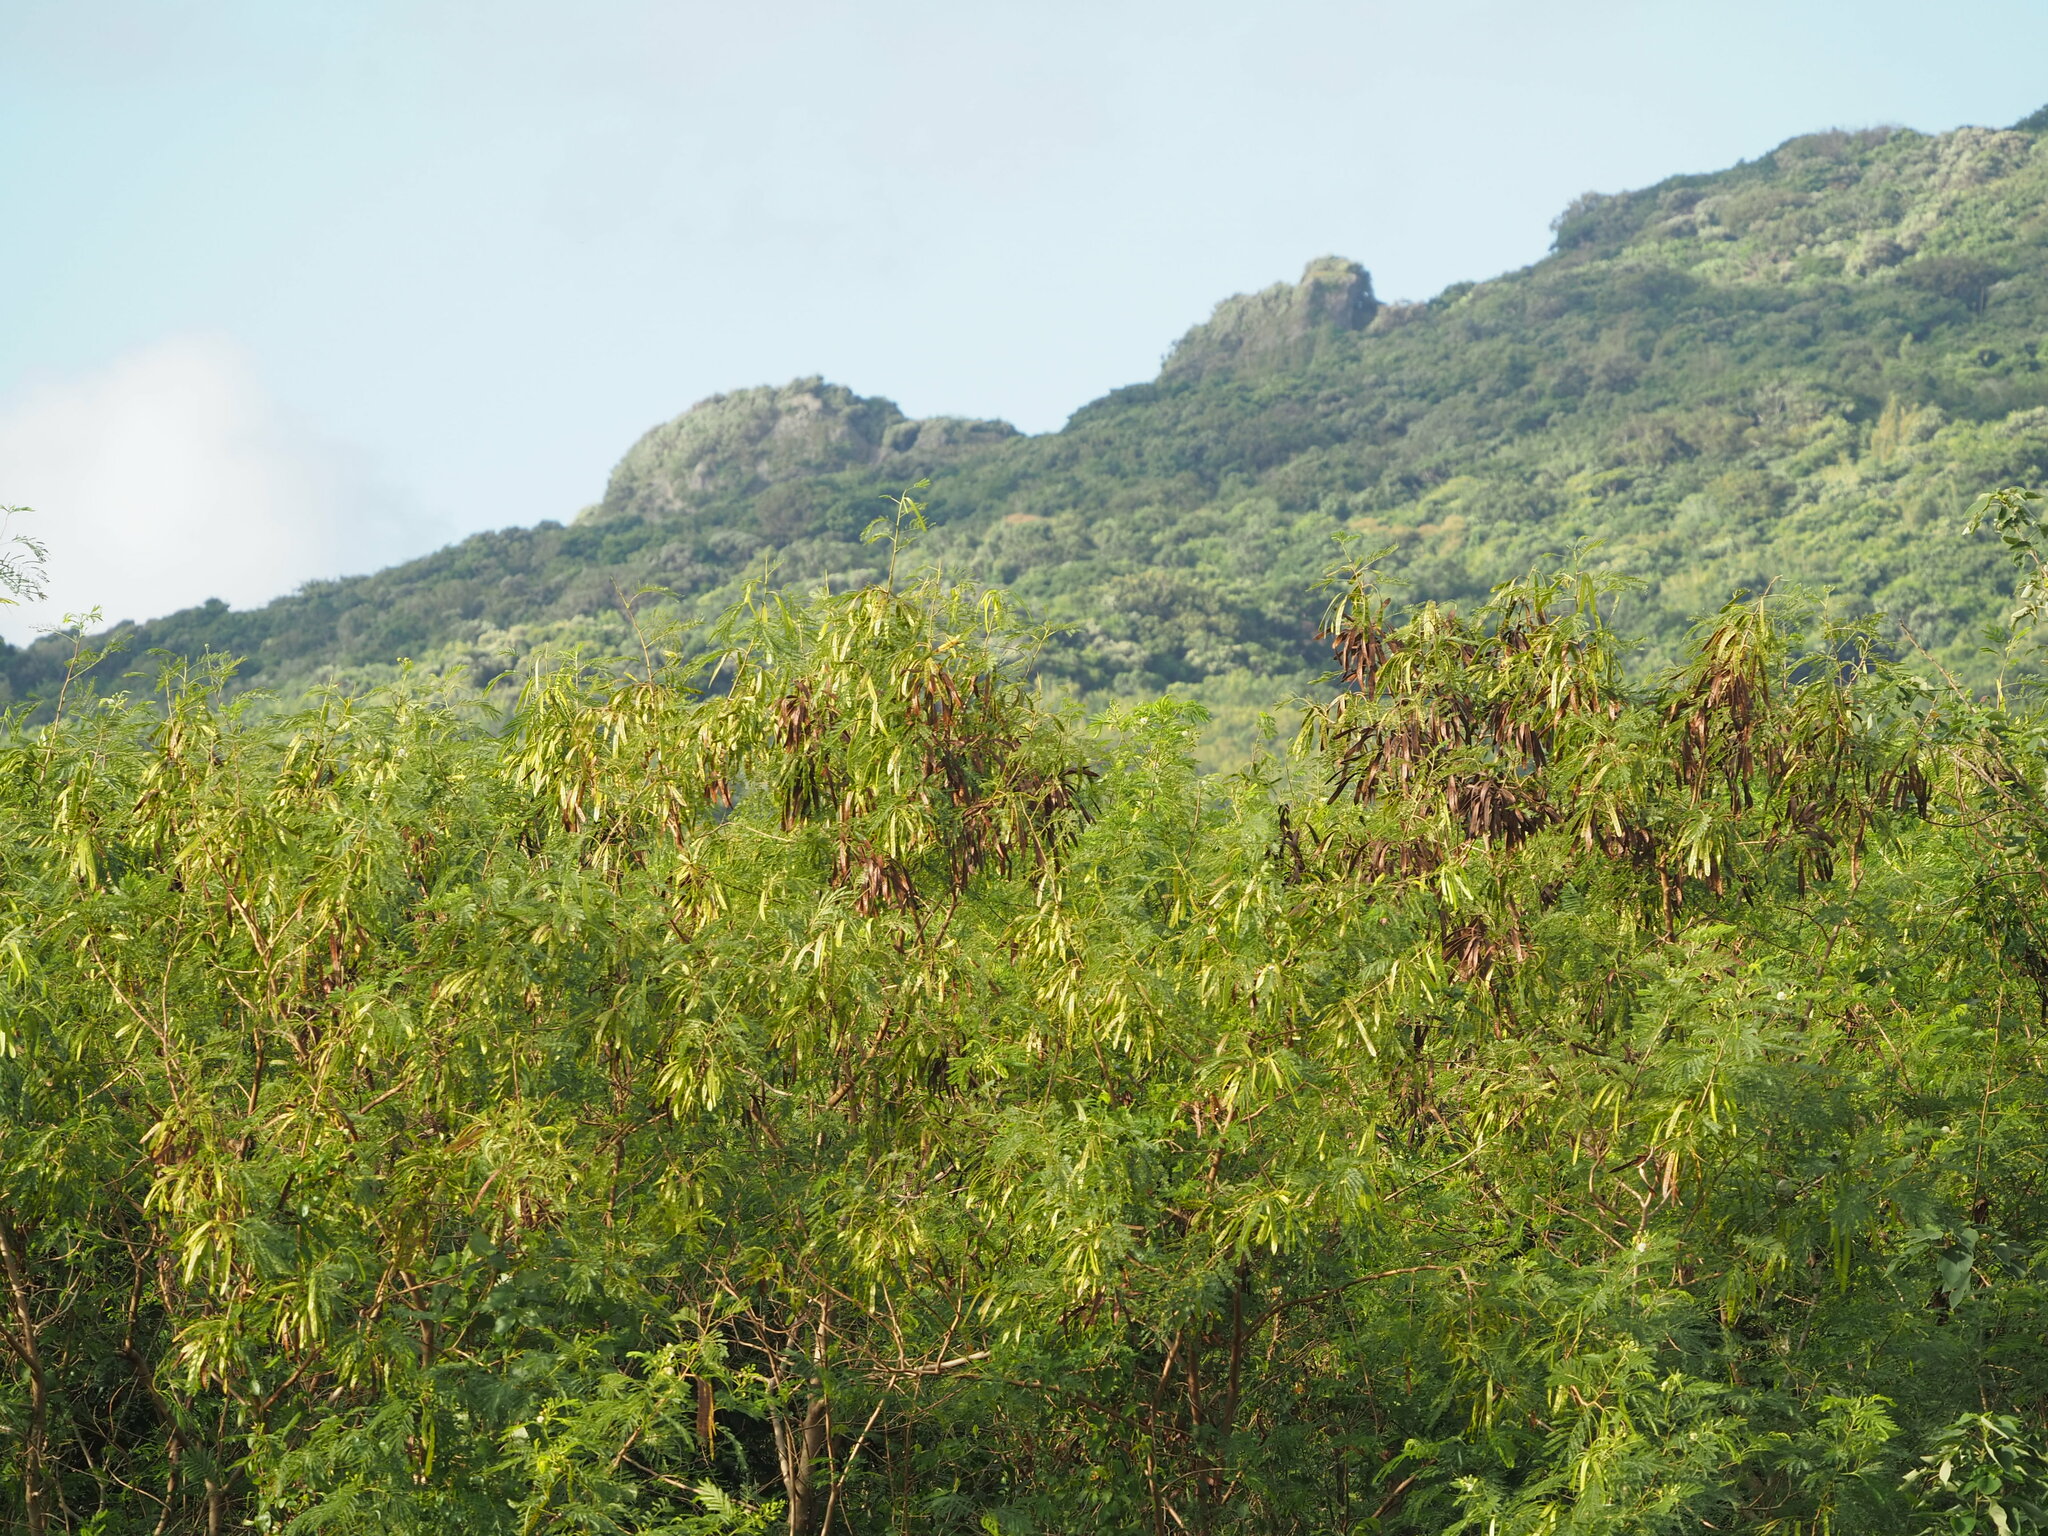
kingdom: Plantae
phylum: Tracheophyta
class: Magnoliopsida
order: Fabales
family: Fabaceae
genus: Leucaena
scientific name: Leucaena leucocephala
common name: White leadtree
